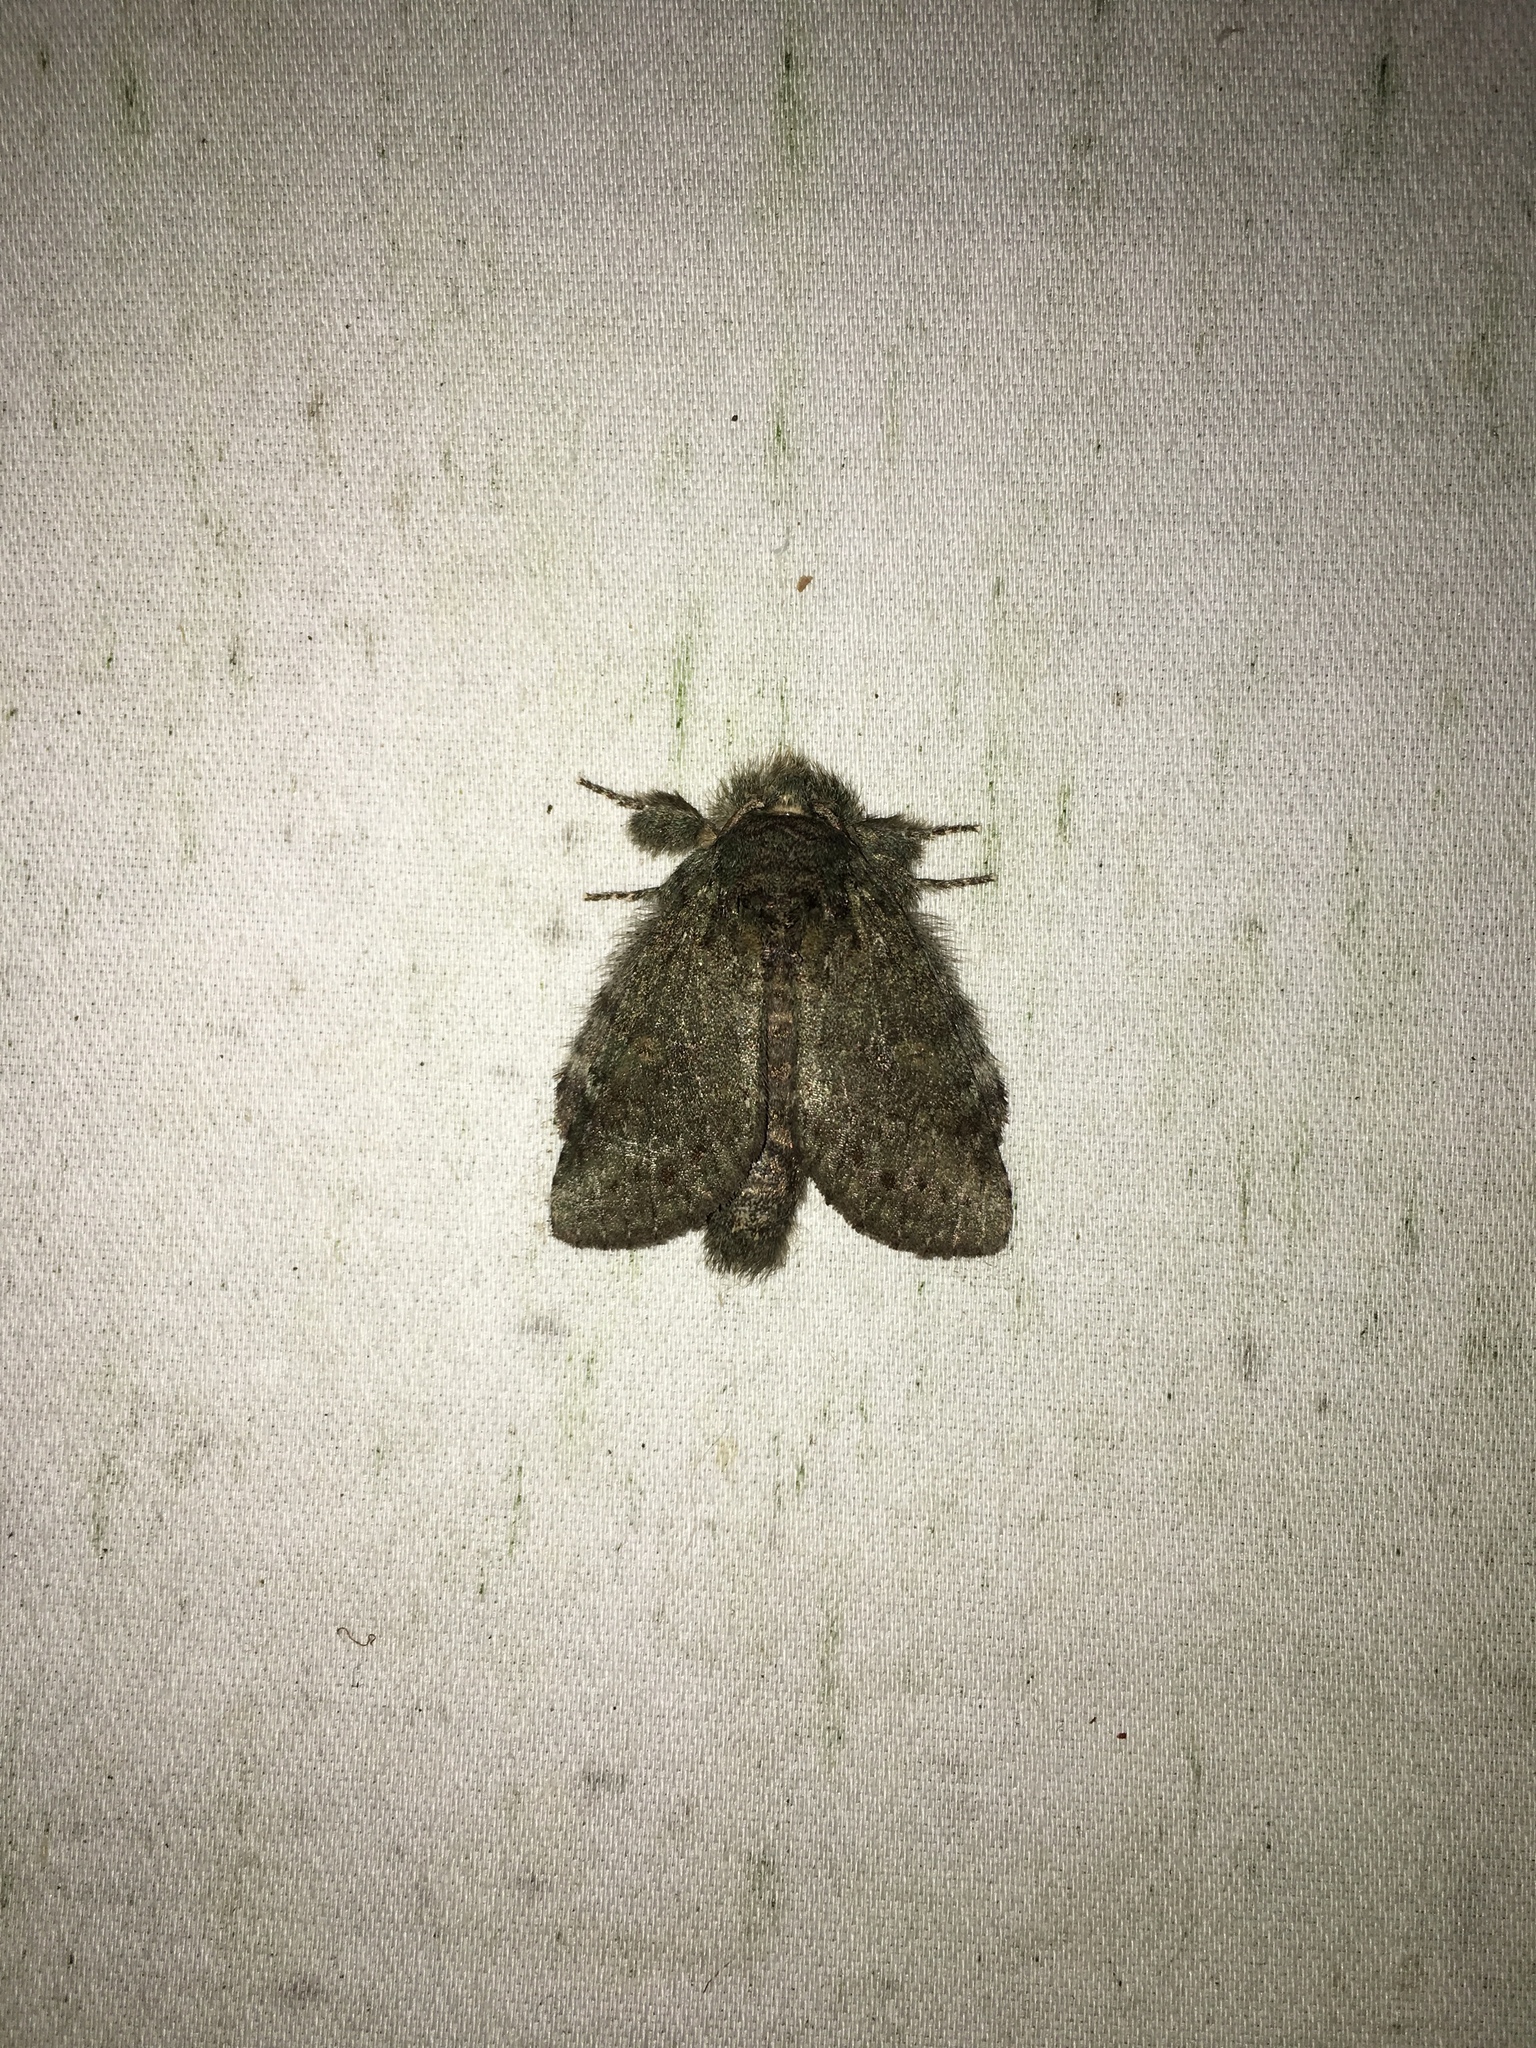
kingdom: Animalia
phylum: Arthropoda
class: Insecta
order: Lepidoptera
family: Notodontidae
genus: Disphragis
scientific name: Disphragis Cecrita guttivitta
